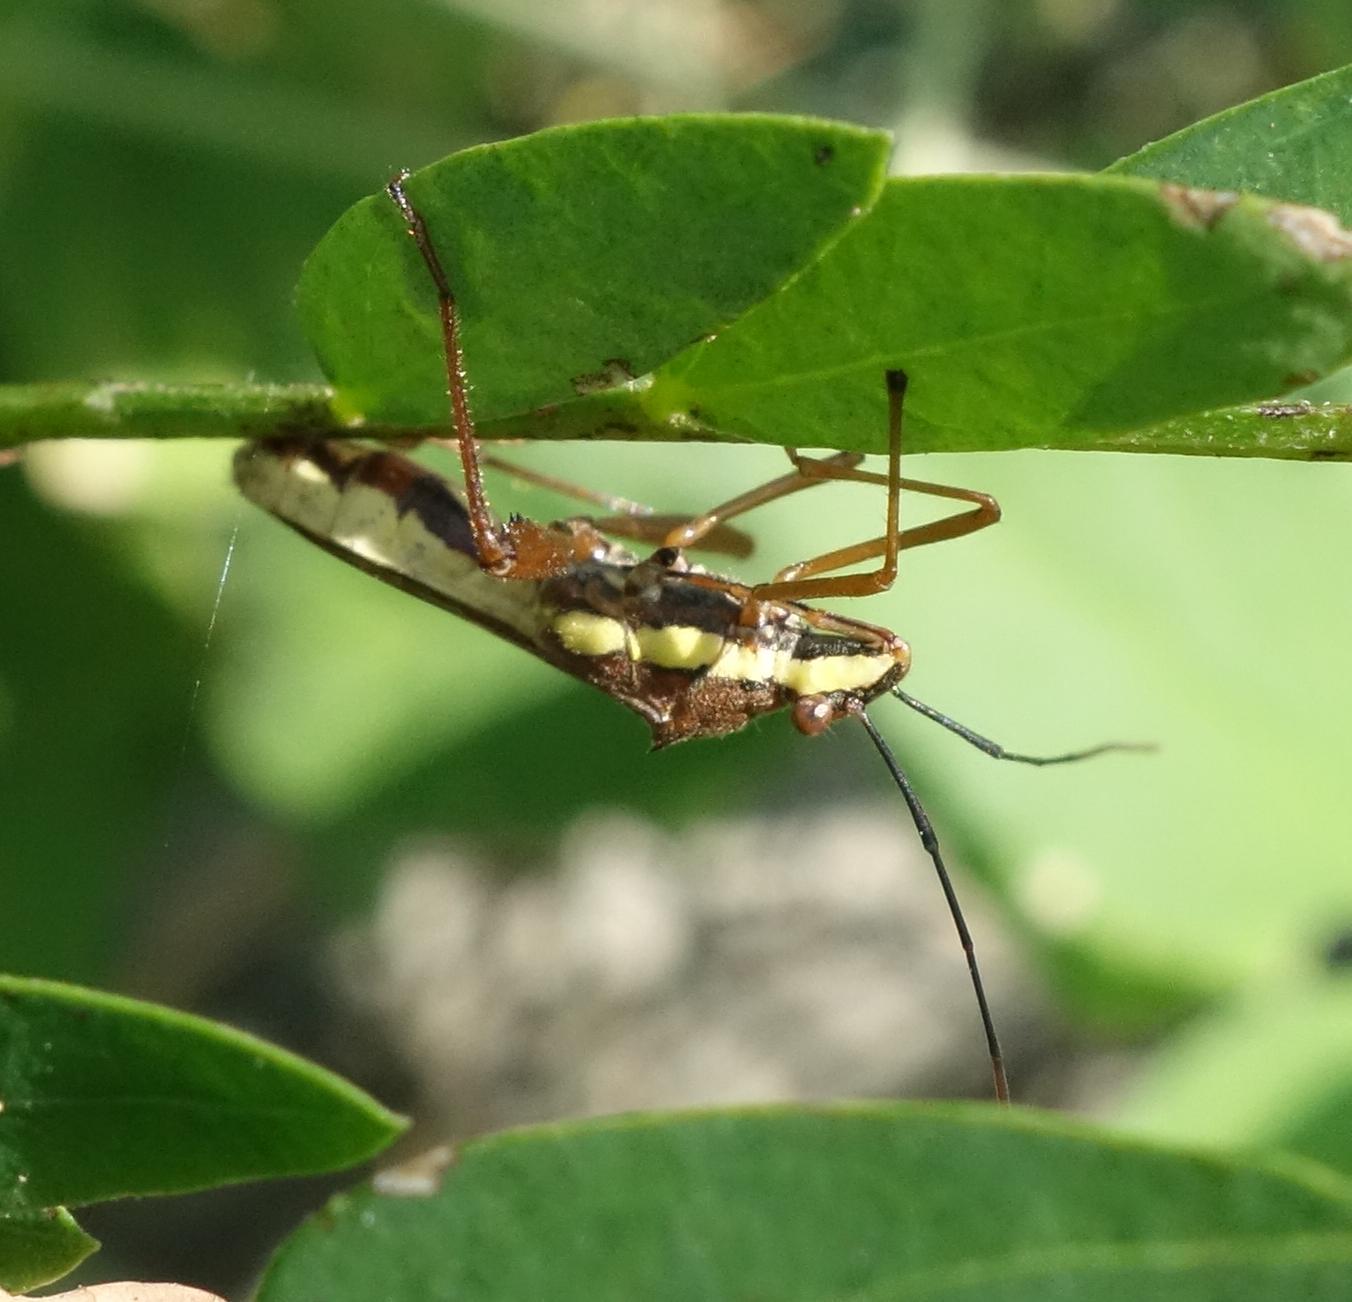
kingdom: Animalia
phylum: Arthropoda
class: Insecta
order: Hemiptera
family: Alydidae
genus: Riptortus
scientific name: Riptortus linearis
